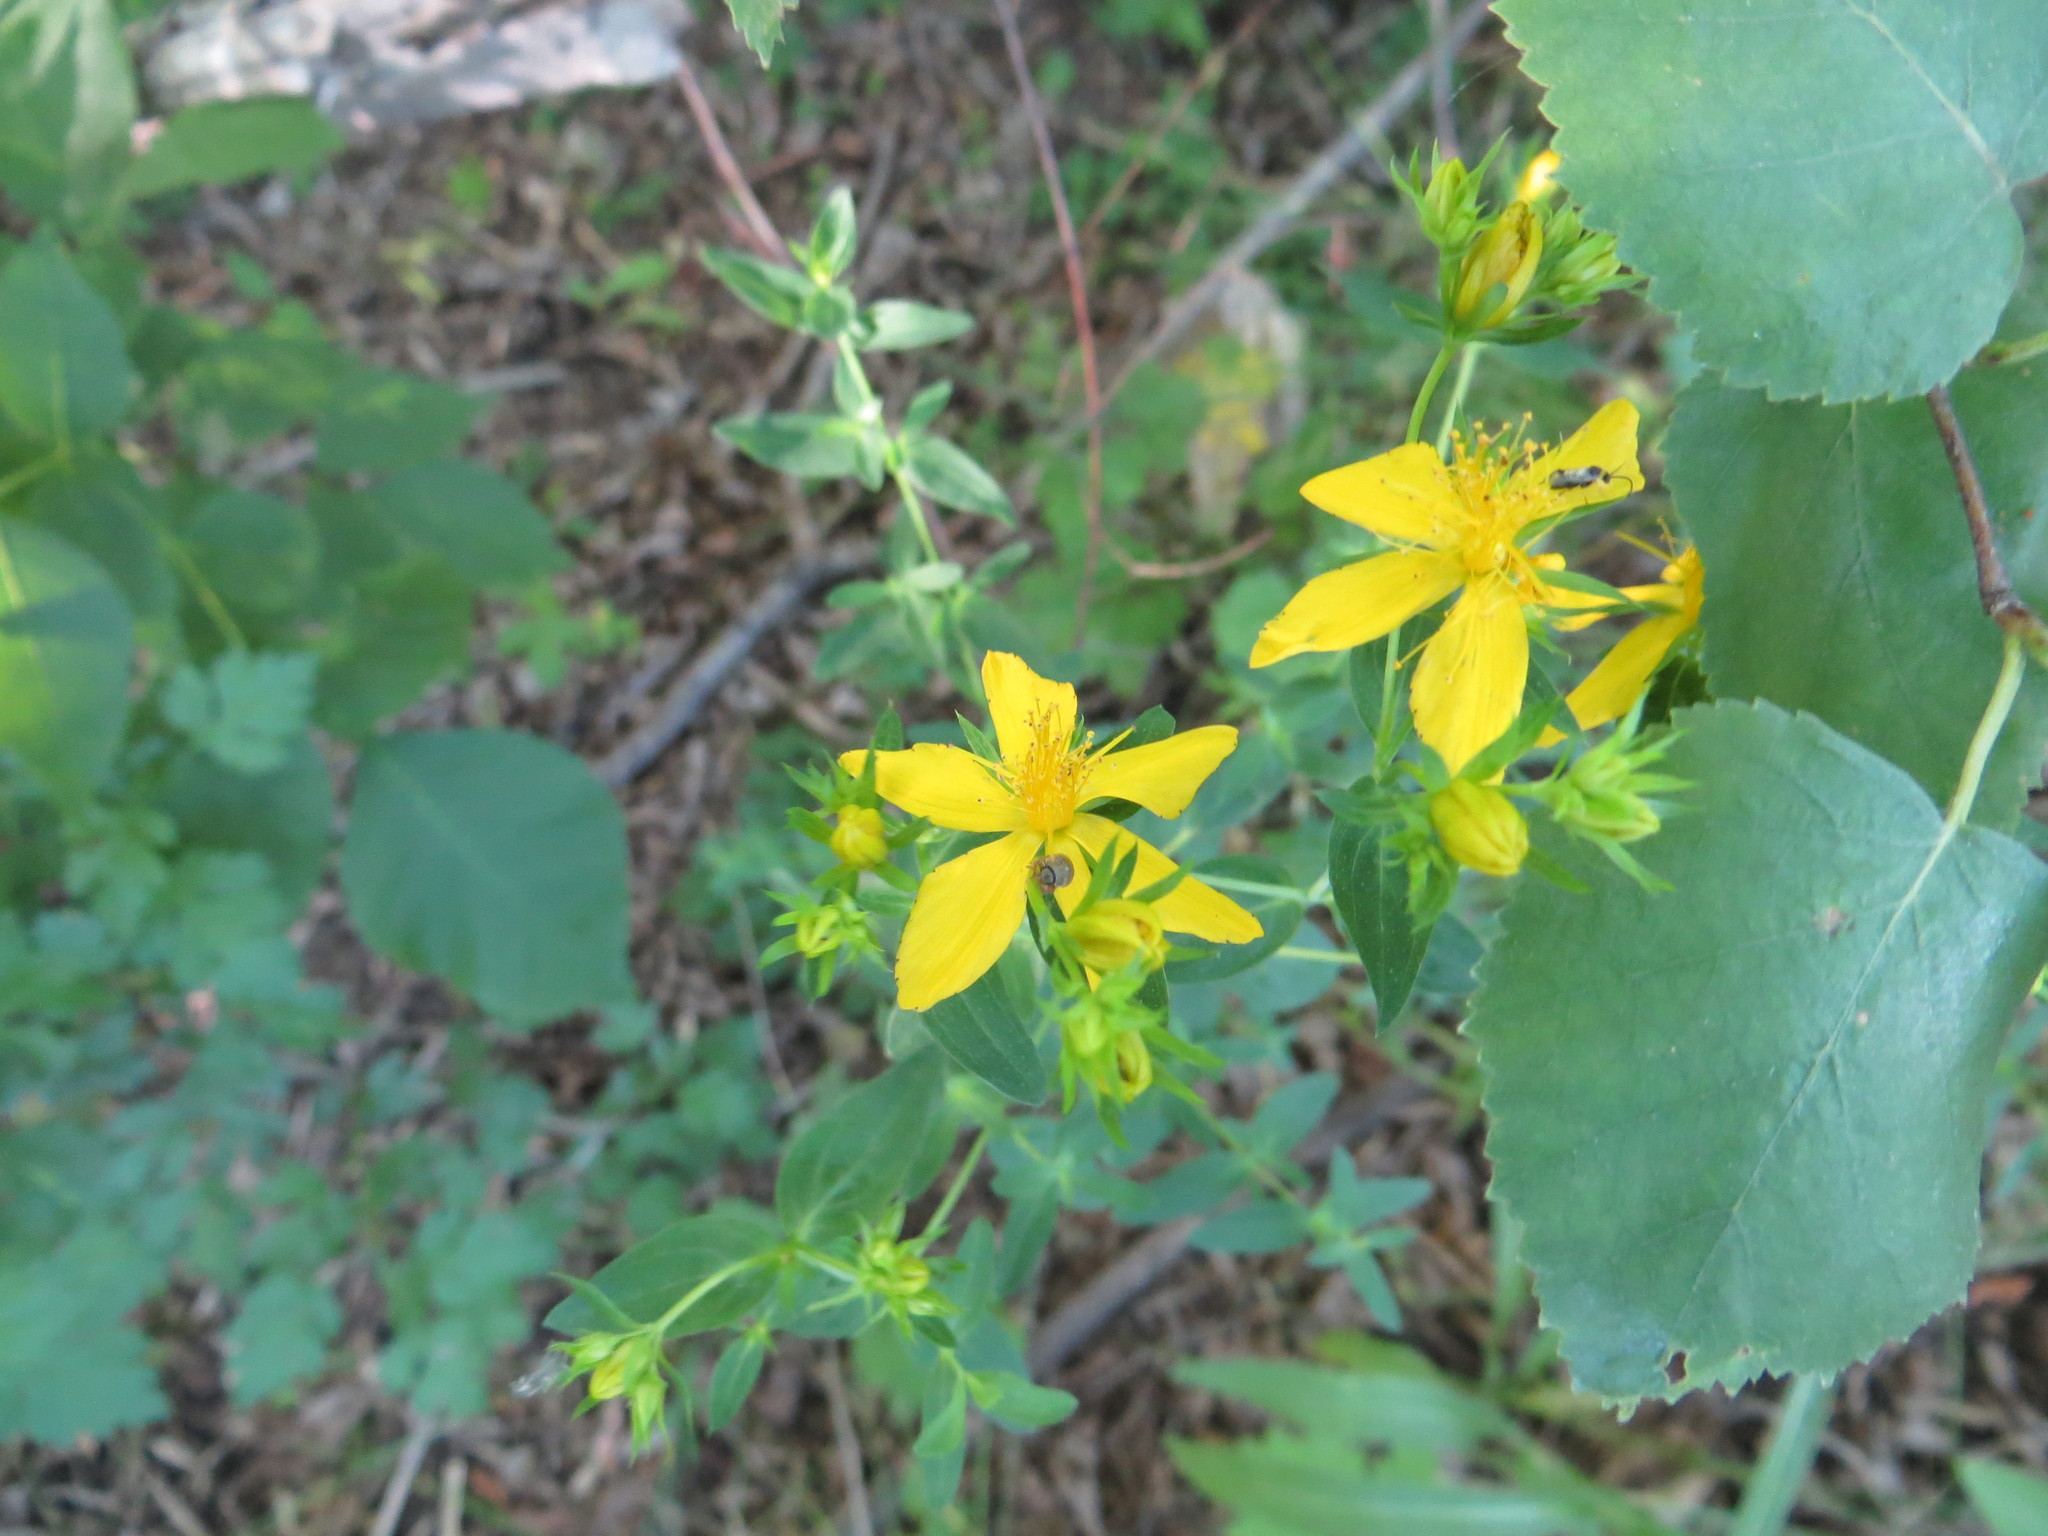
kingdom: Plantae
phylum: Tracheophyta
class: Magnoliopsida
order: Malpighiales
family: Hypericaceae
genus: Hypericum
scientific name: Hypericum perforatum
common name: Common st. johnswort
